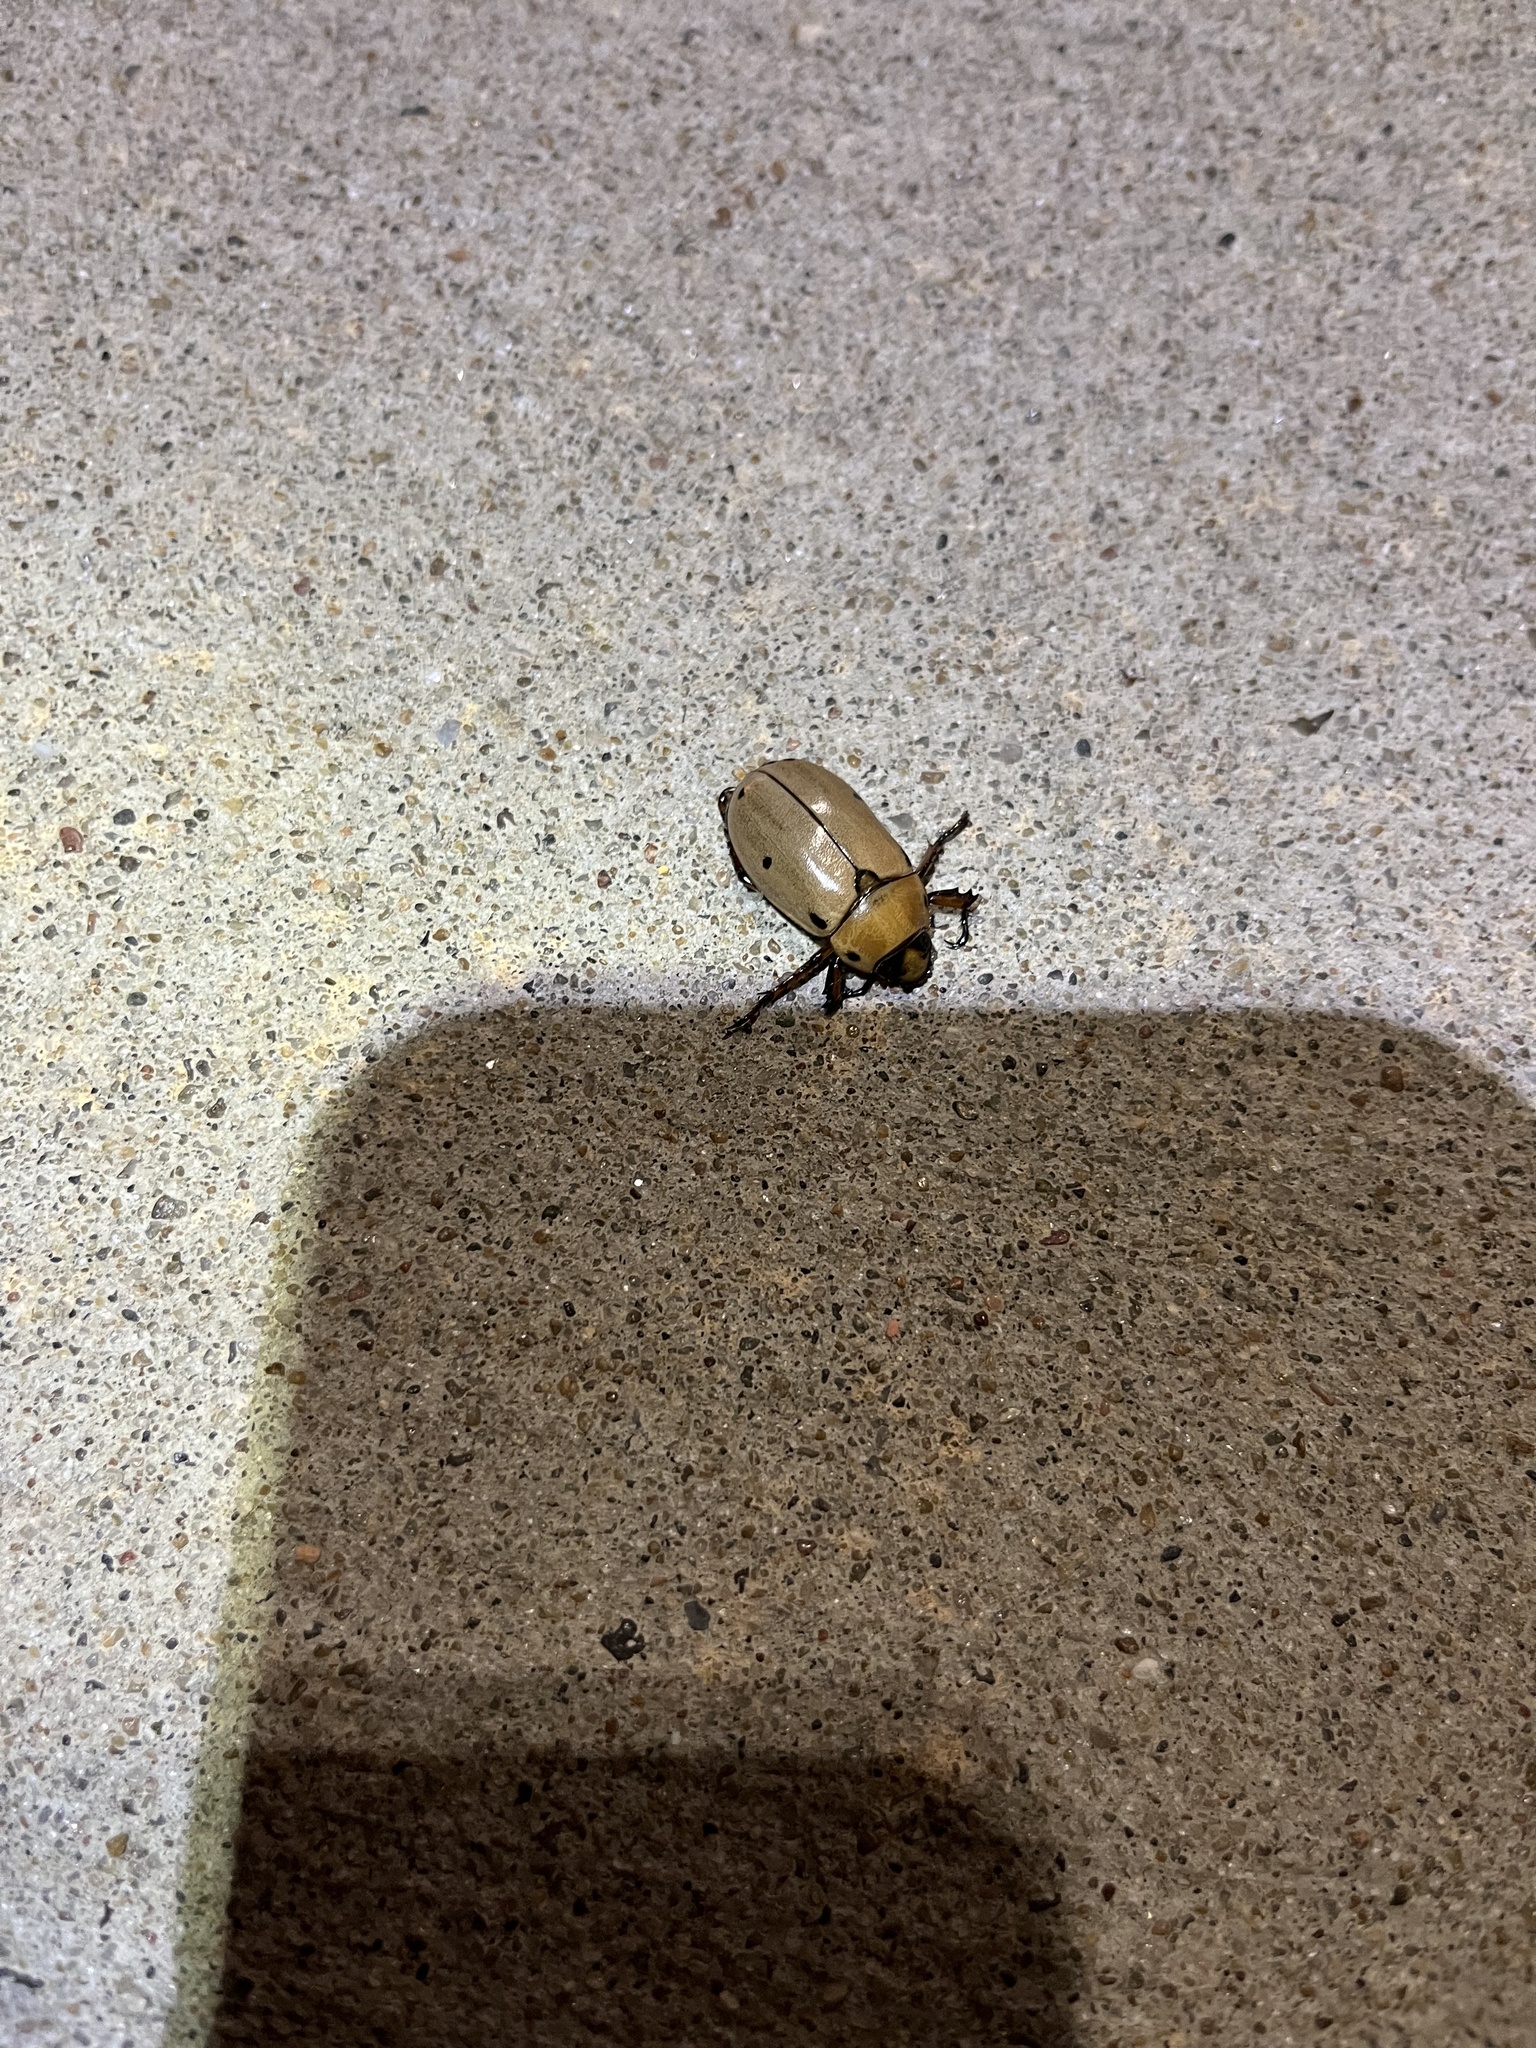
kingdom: Animalia
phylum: Arthropoda
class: Insecta
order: Coleoptera
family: Scarabaeidae
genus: Pelidnota
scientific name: Pelidnota punctata
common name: Grapevine beetle
